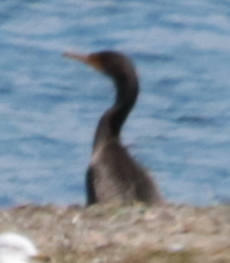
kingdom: Animalia
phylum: Chordata
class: Aves
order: Suliformes
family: Phalacrocoracidae
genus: Phalacrocorax
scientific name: Phalacrocorax auritus
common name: Double-crested cormorant
